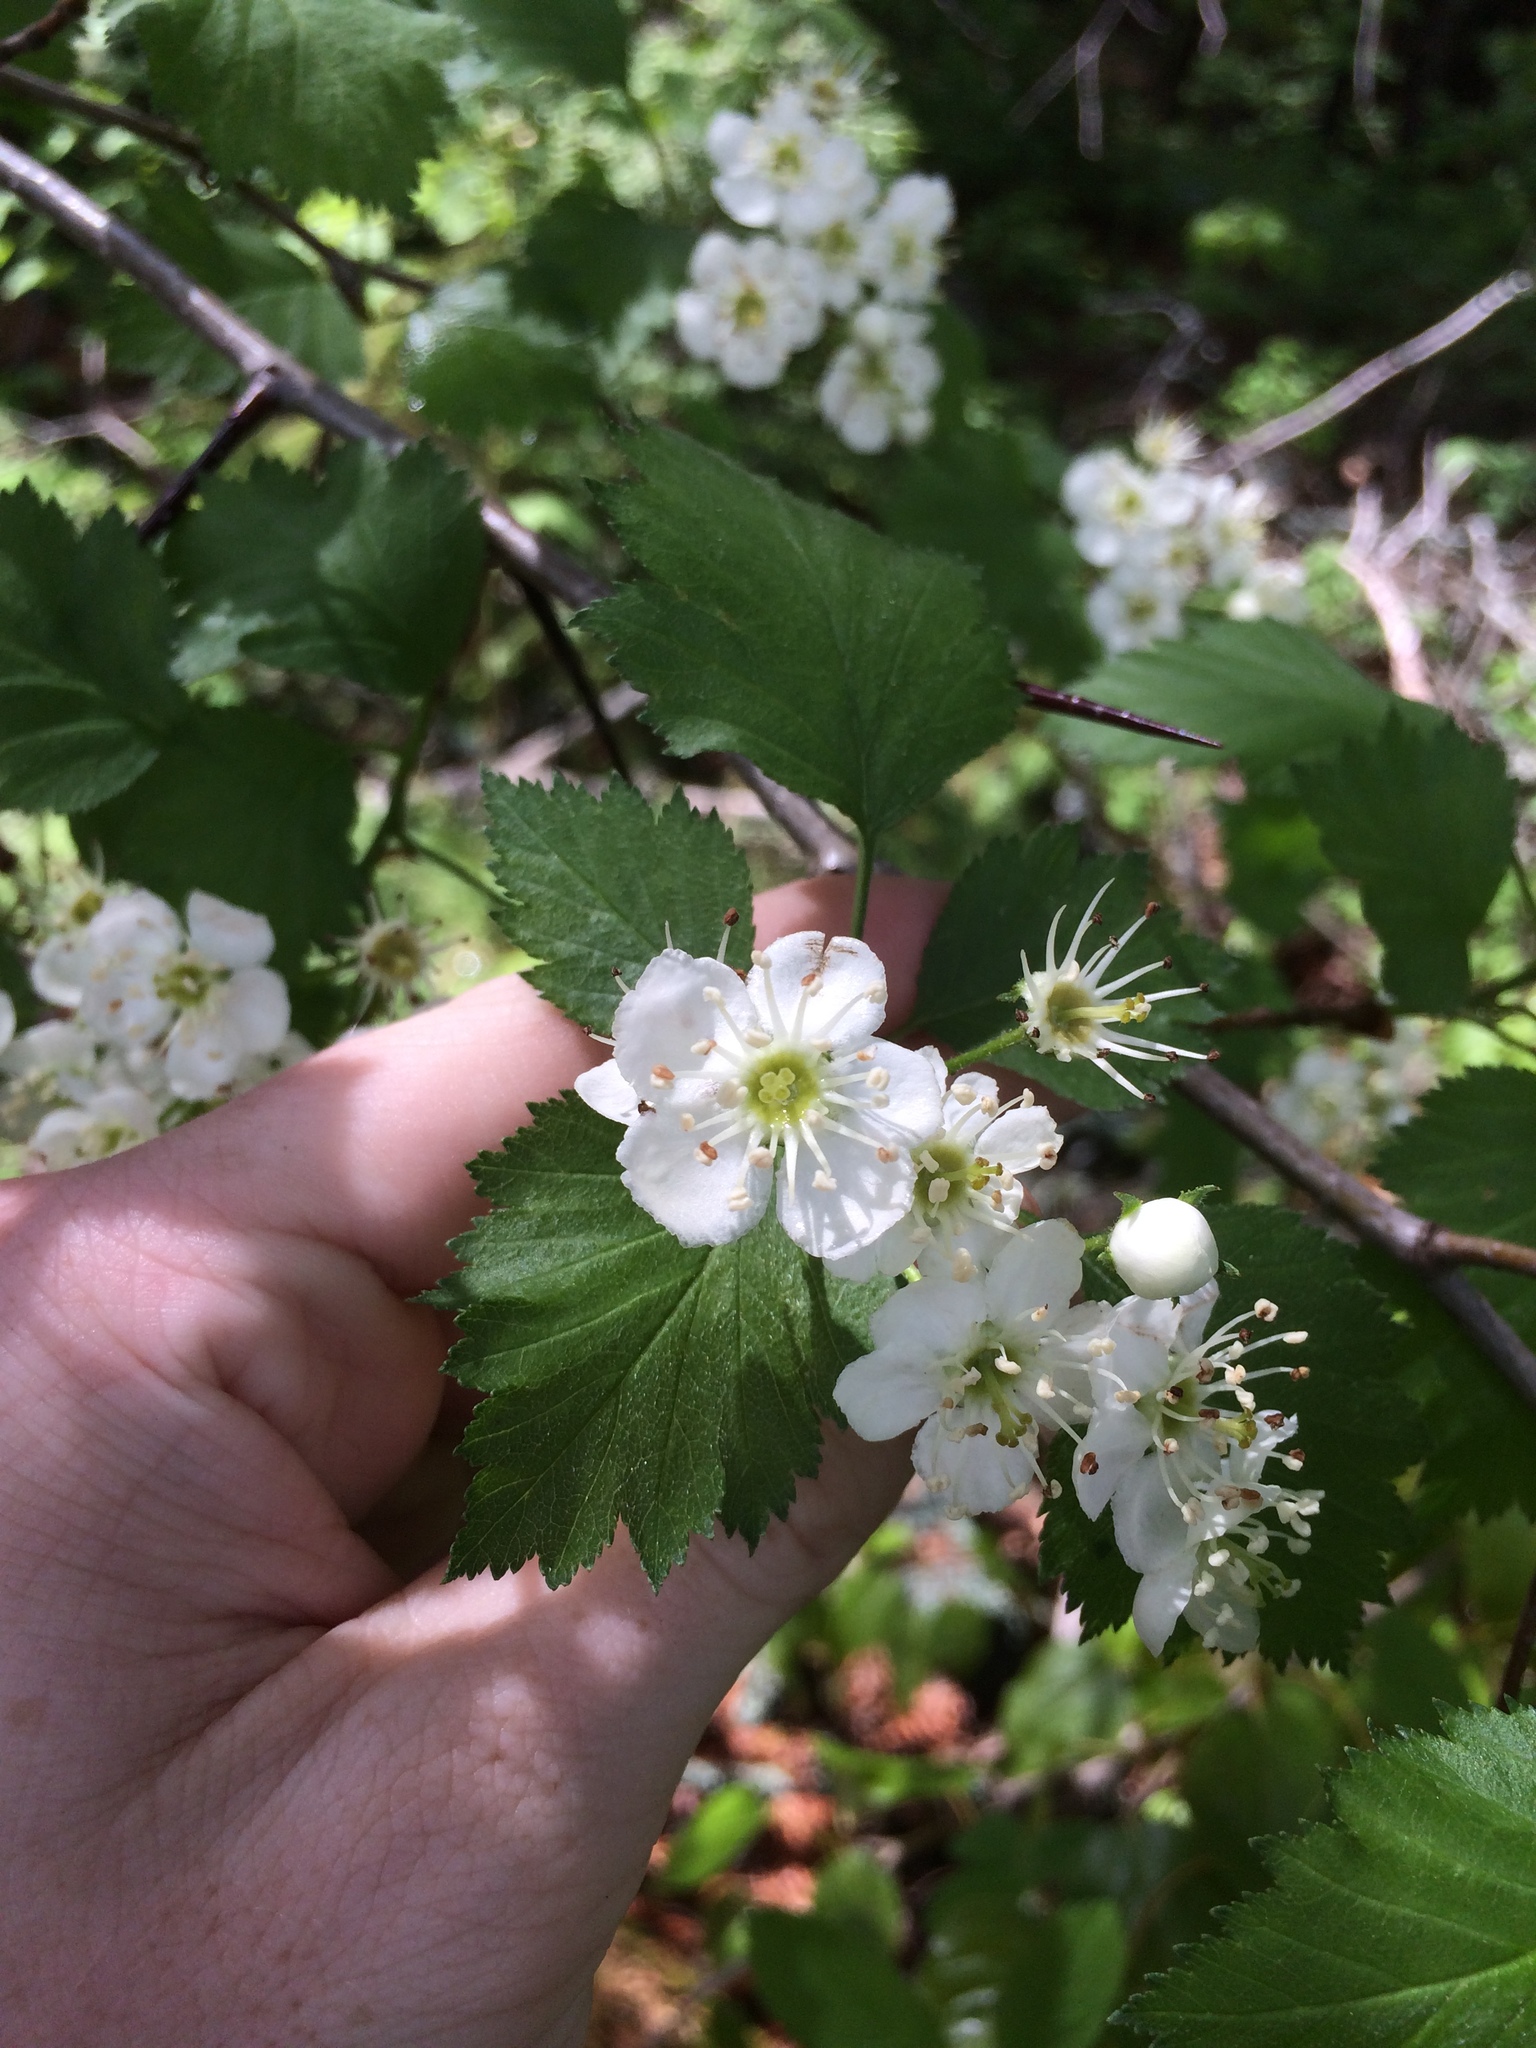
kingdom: Plantae
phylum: Tracheophyta
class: Magnoliopsida
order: Rosales
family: Rosaceae
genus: Crataegus
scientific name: Crataegus irrasa
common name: Unshorn hawthorn
